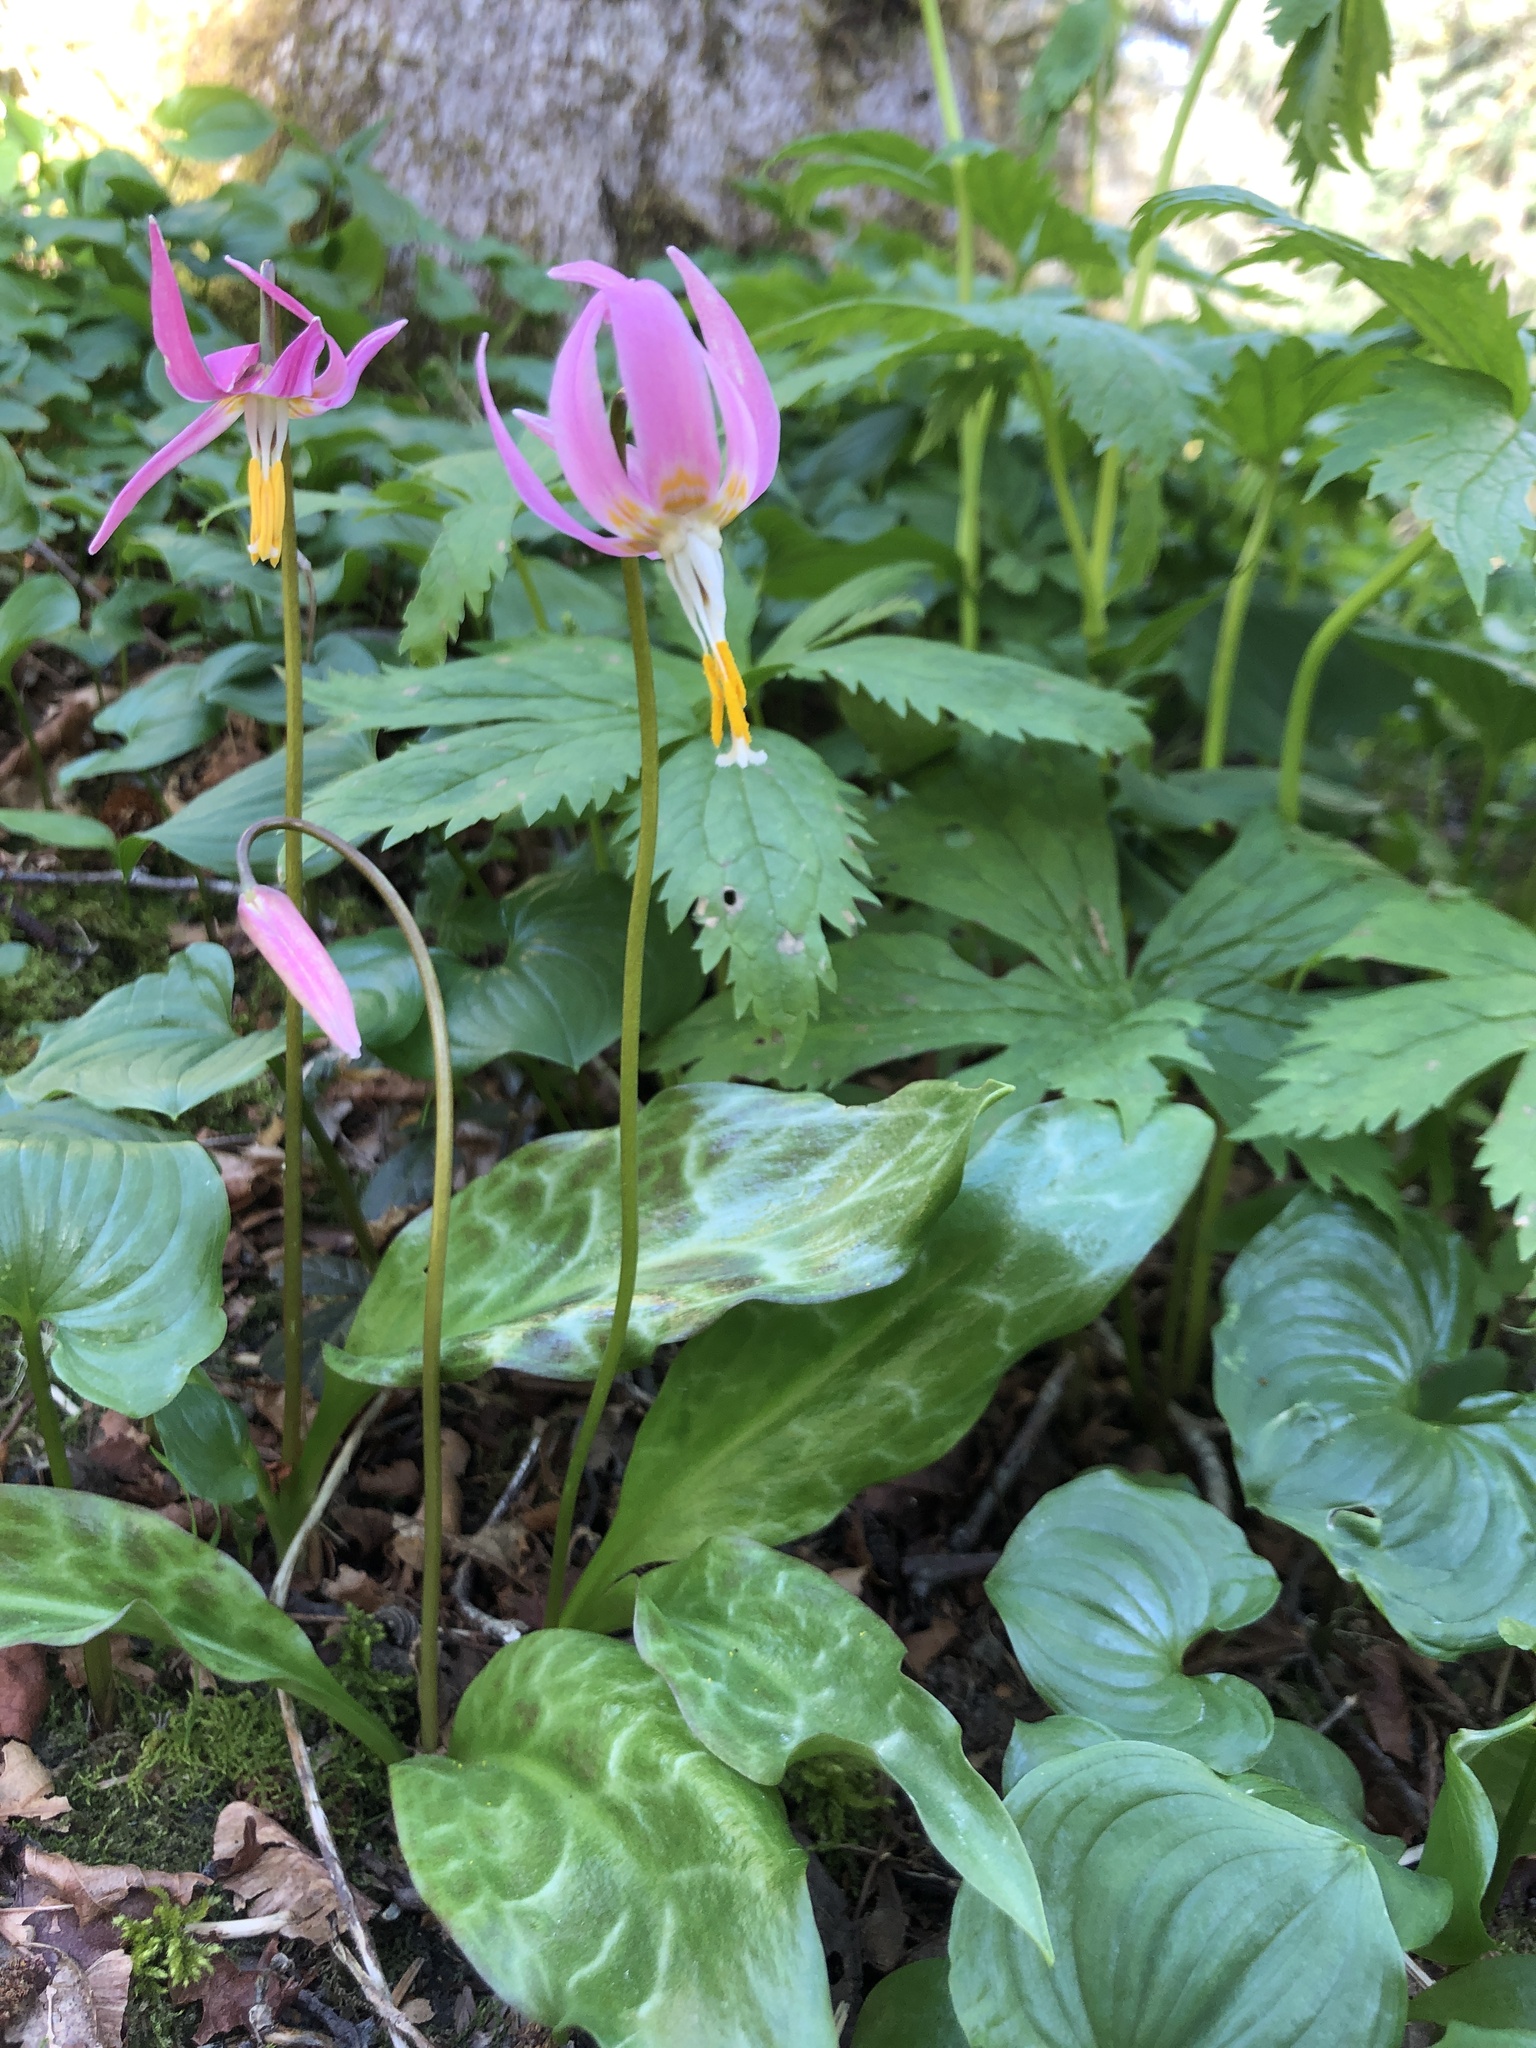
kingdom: Plantae
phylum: Tracheophyta
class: Liliopsida
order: Liliales
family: Liliaceae
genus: Erythronium
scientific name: Erythronium revolutum
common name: Pink fawn-lily
